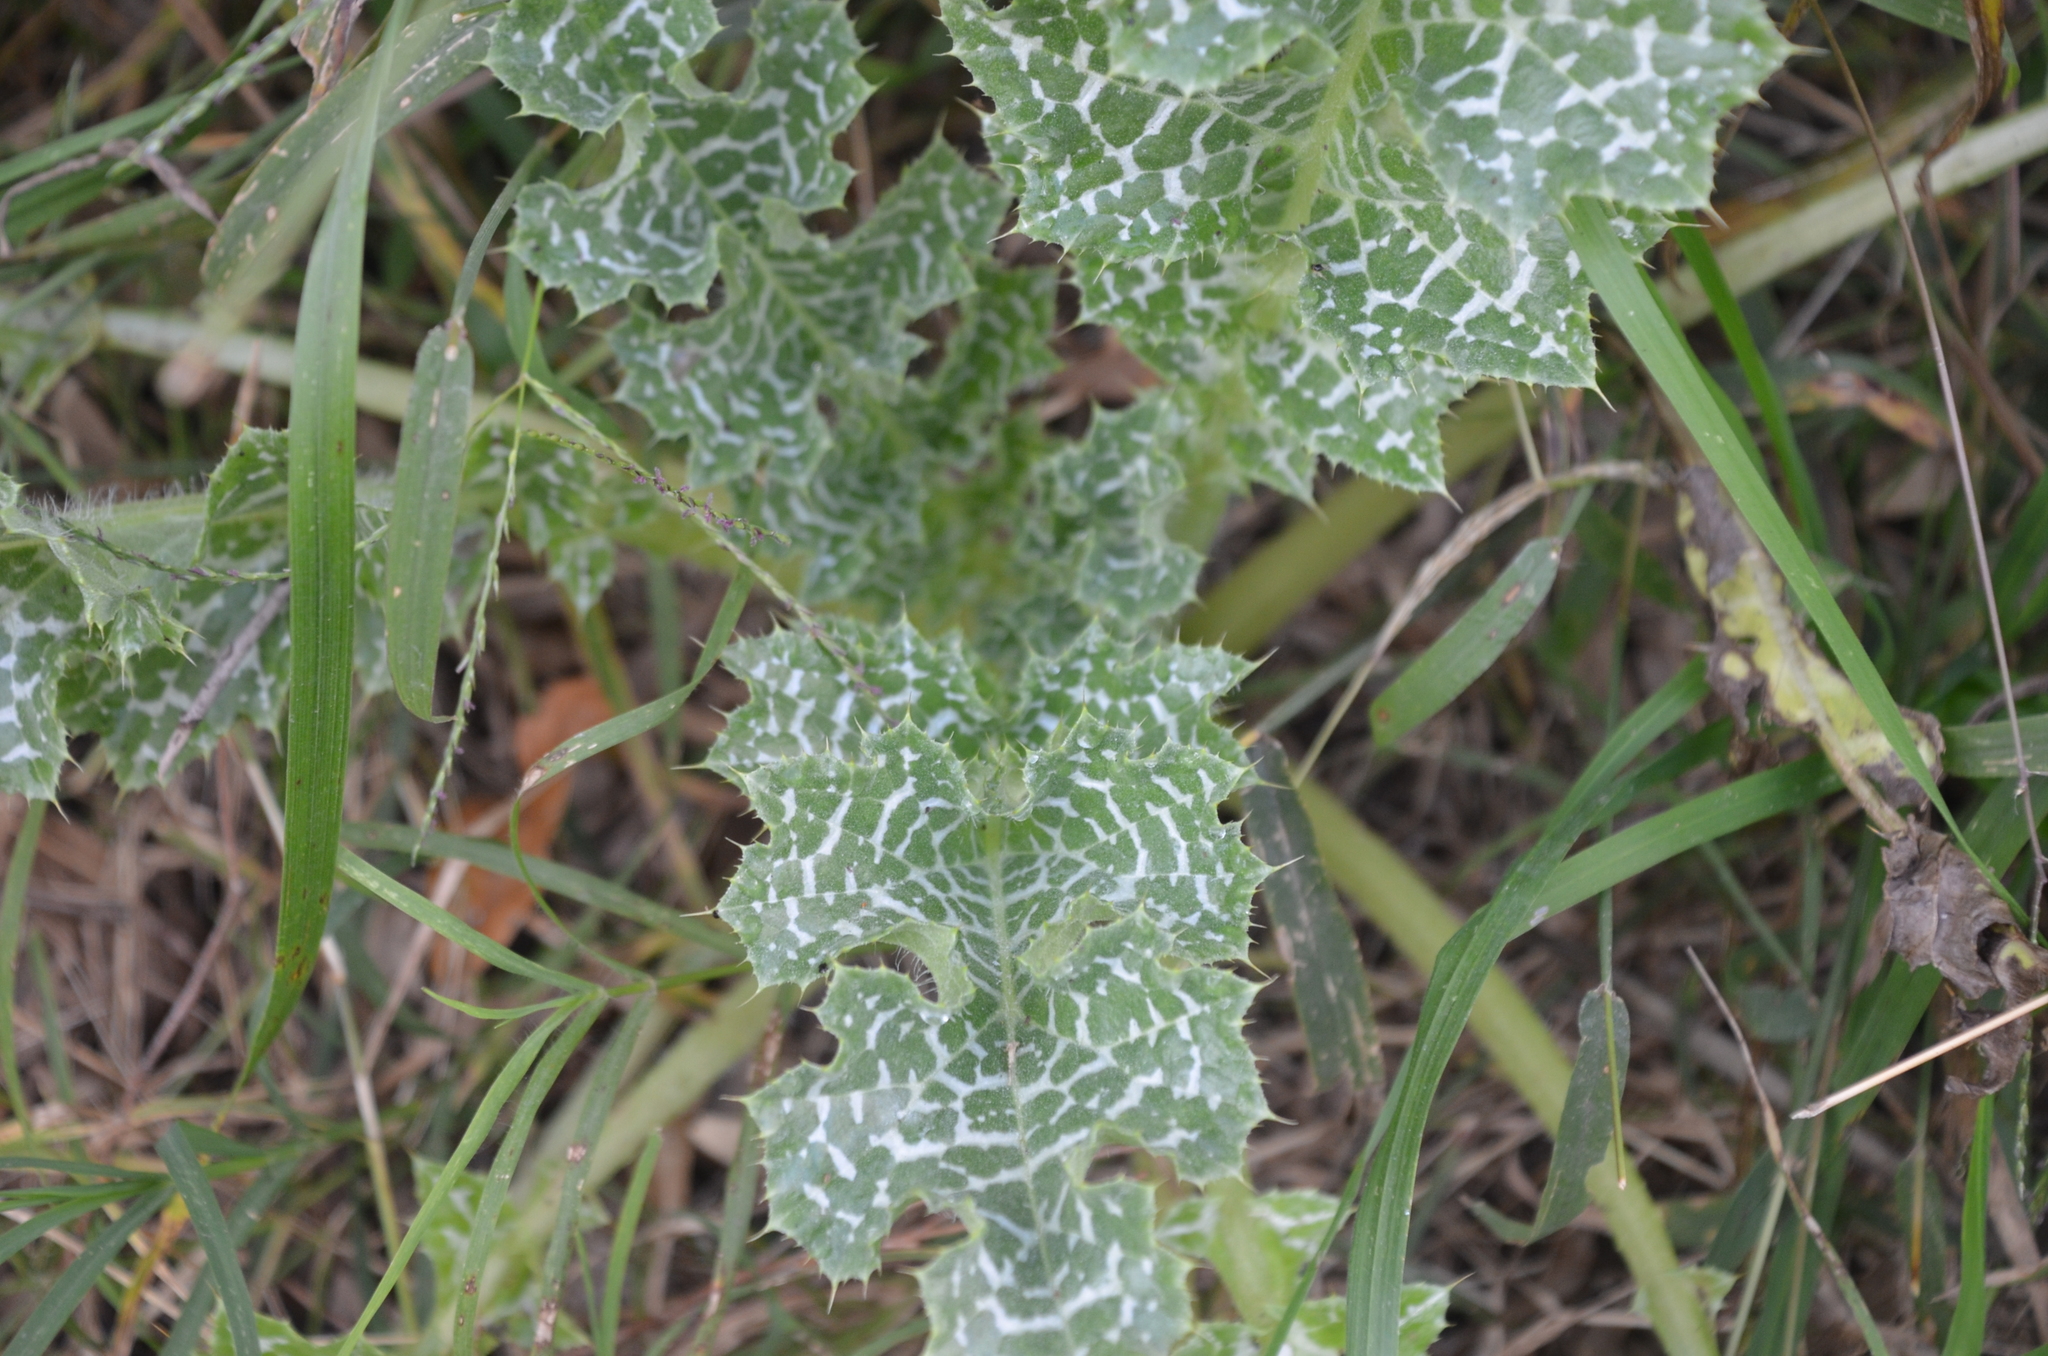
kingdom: Plantae
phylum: Tracheophyta
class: Magnoliopsida
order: Asterales
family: Asteraceae
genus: Silybum
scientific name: Silybum marianum
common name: Milk thistle
